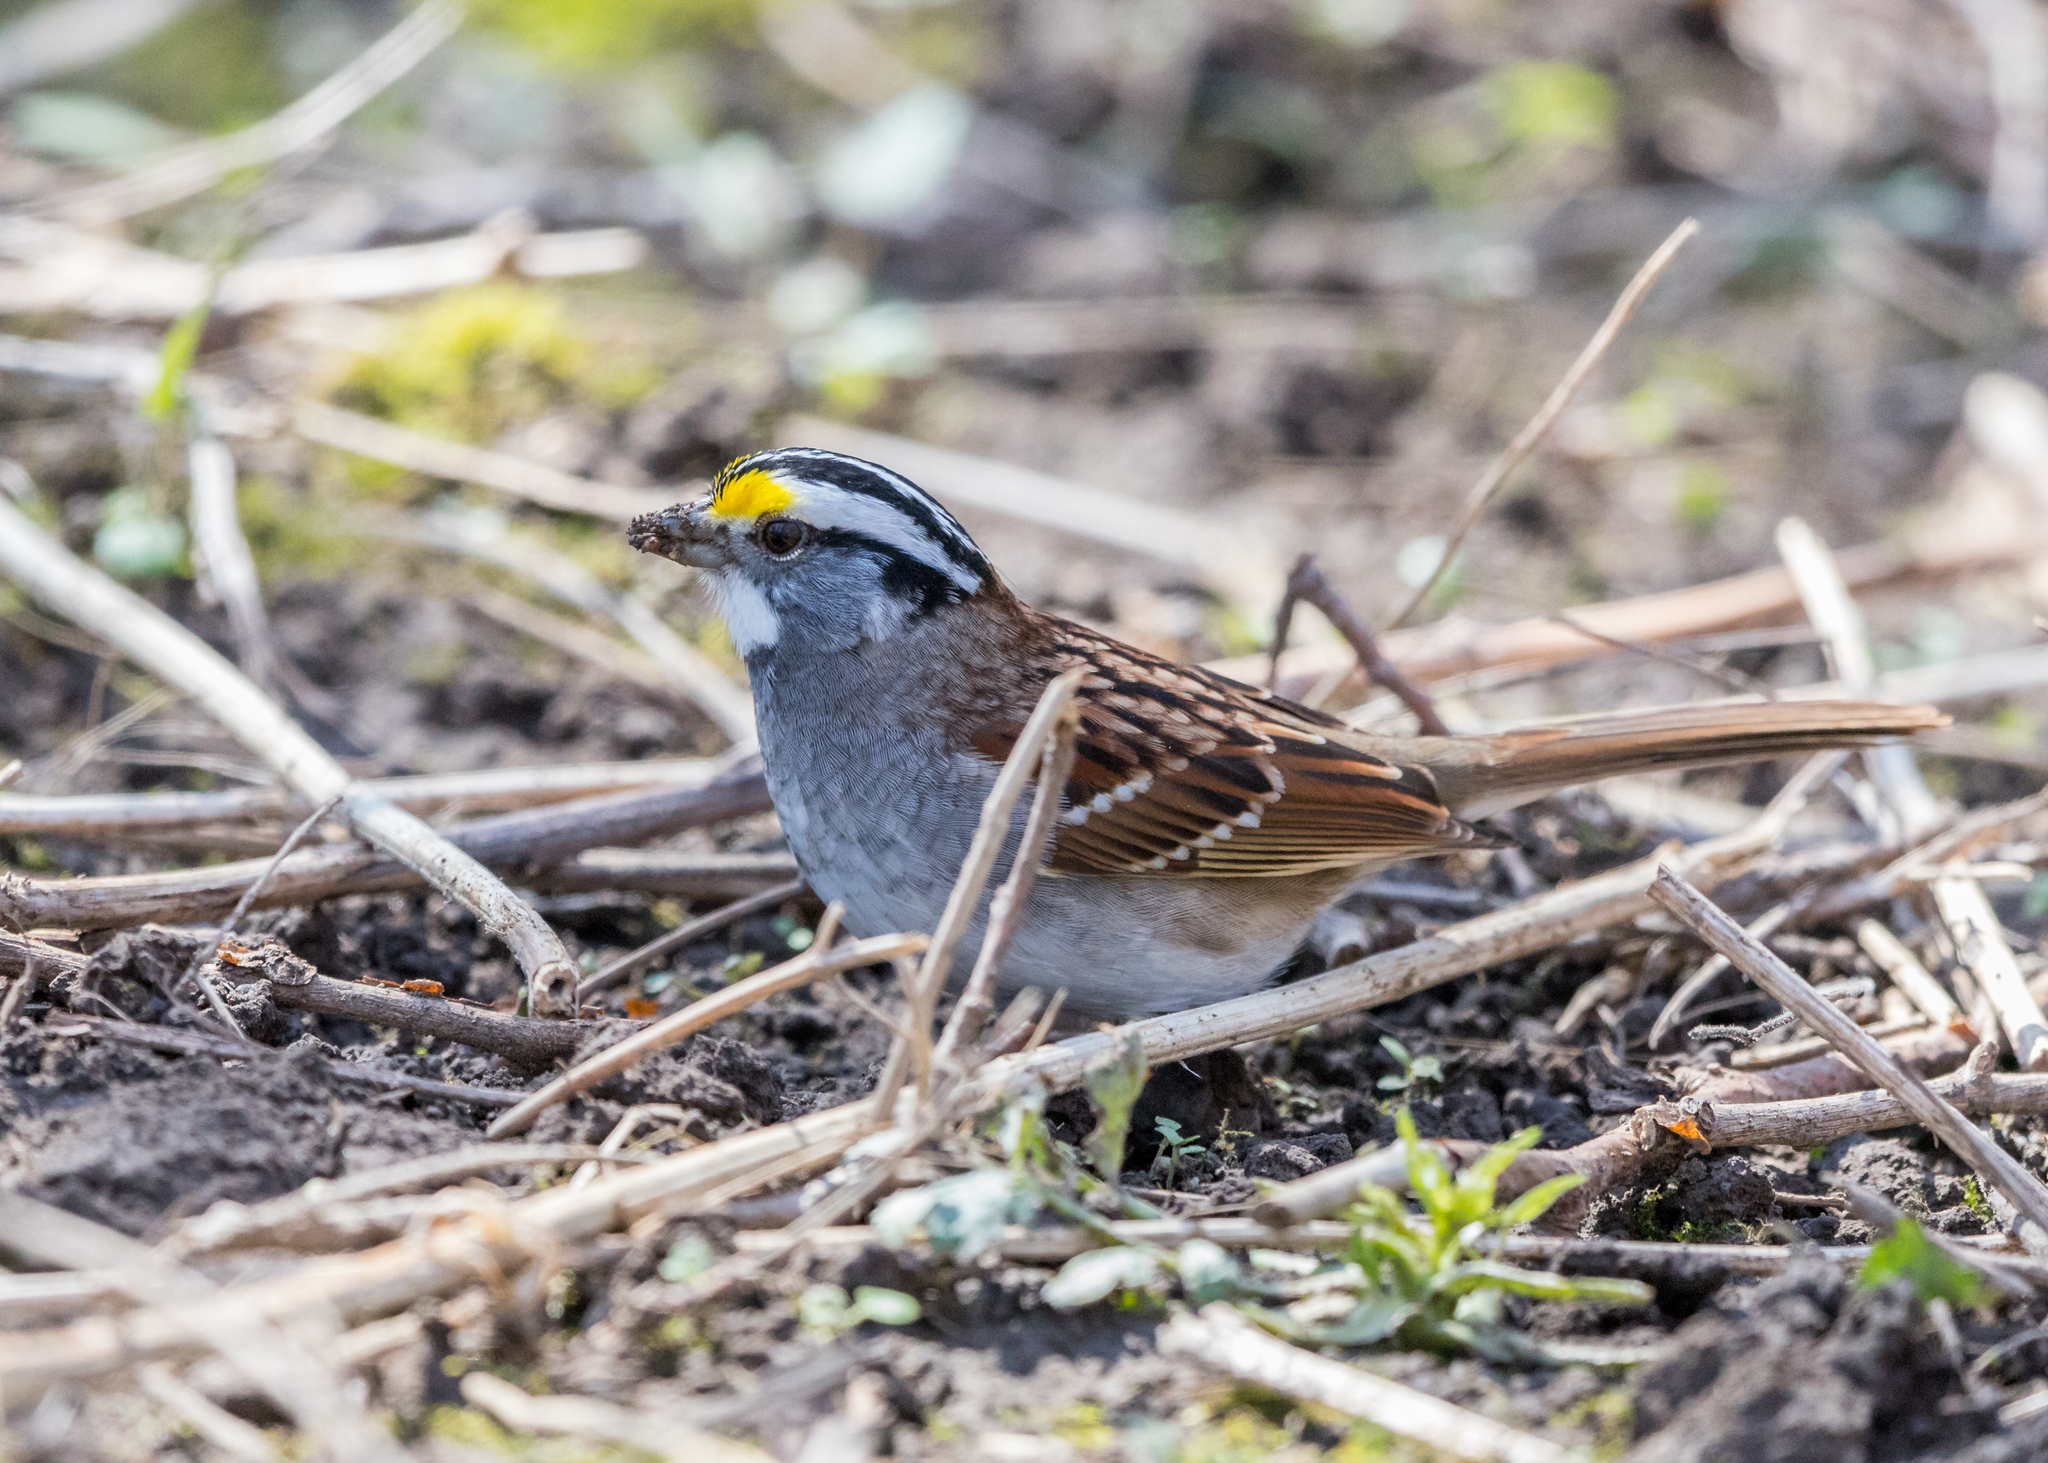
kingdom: Animalia
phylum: Chordata
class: Aves
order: Passeriformes
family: Passerellidae
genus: Zonotrichia
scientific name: Zonotrichia albicollis
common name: White-throated sparrow
